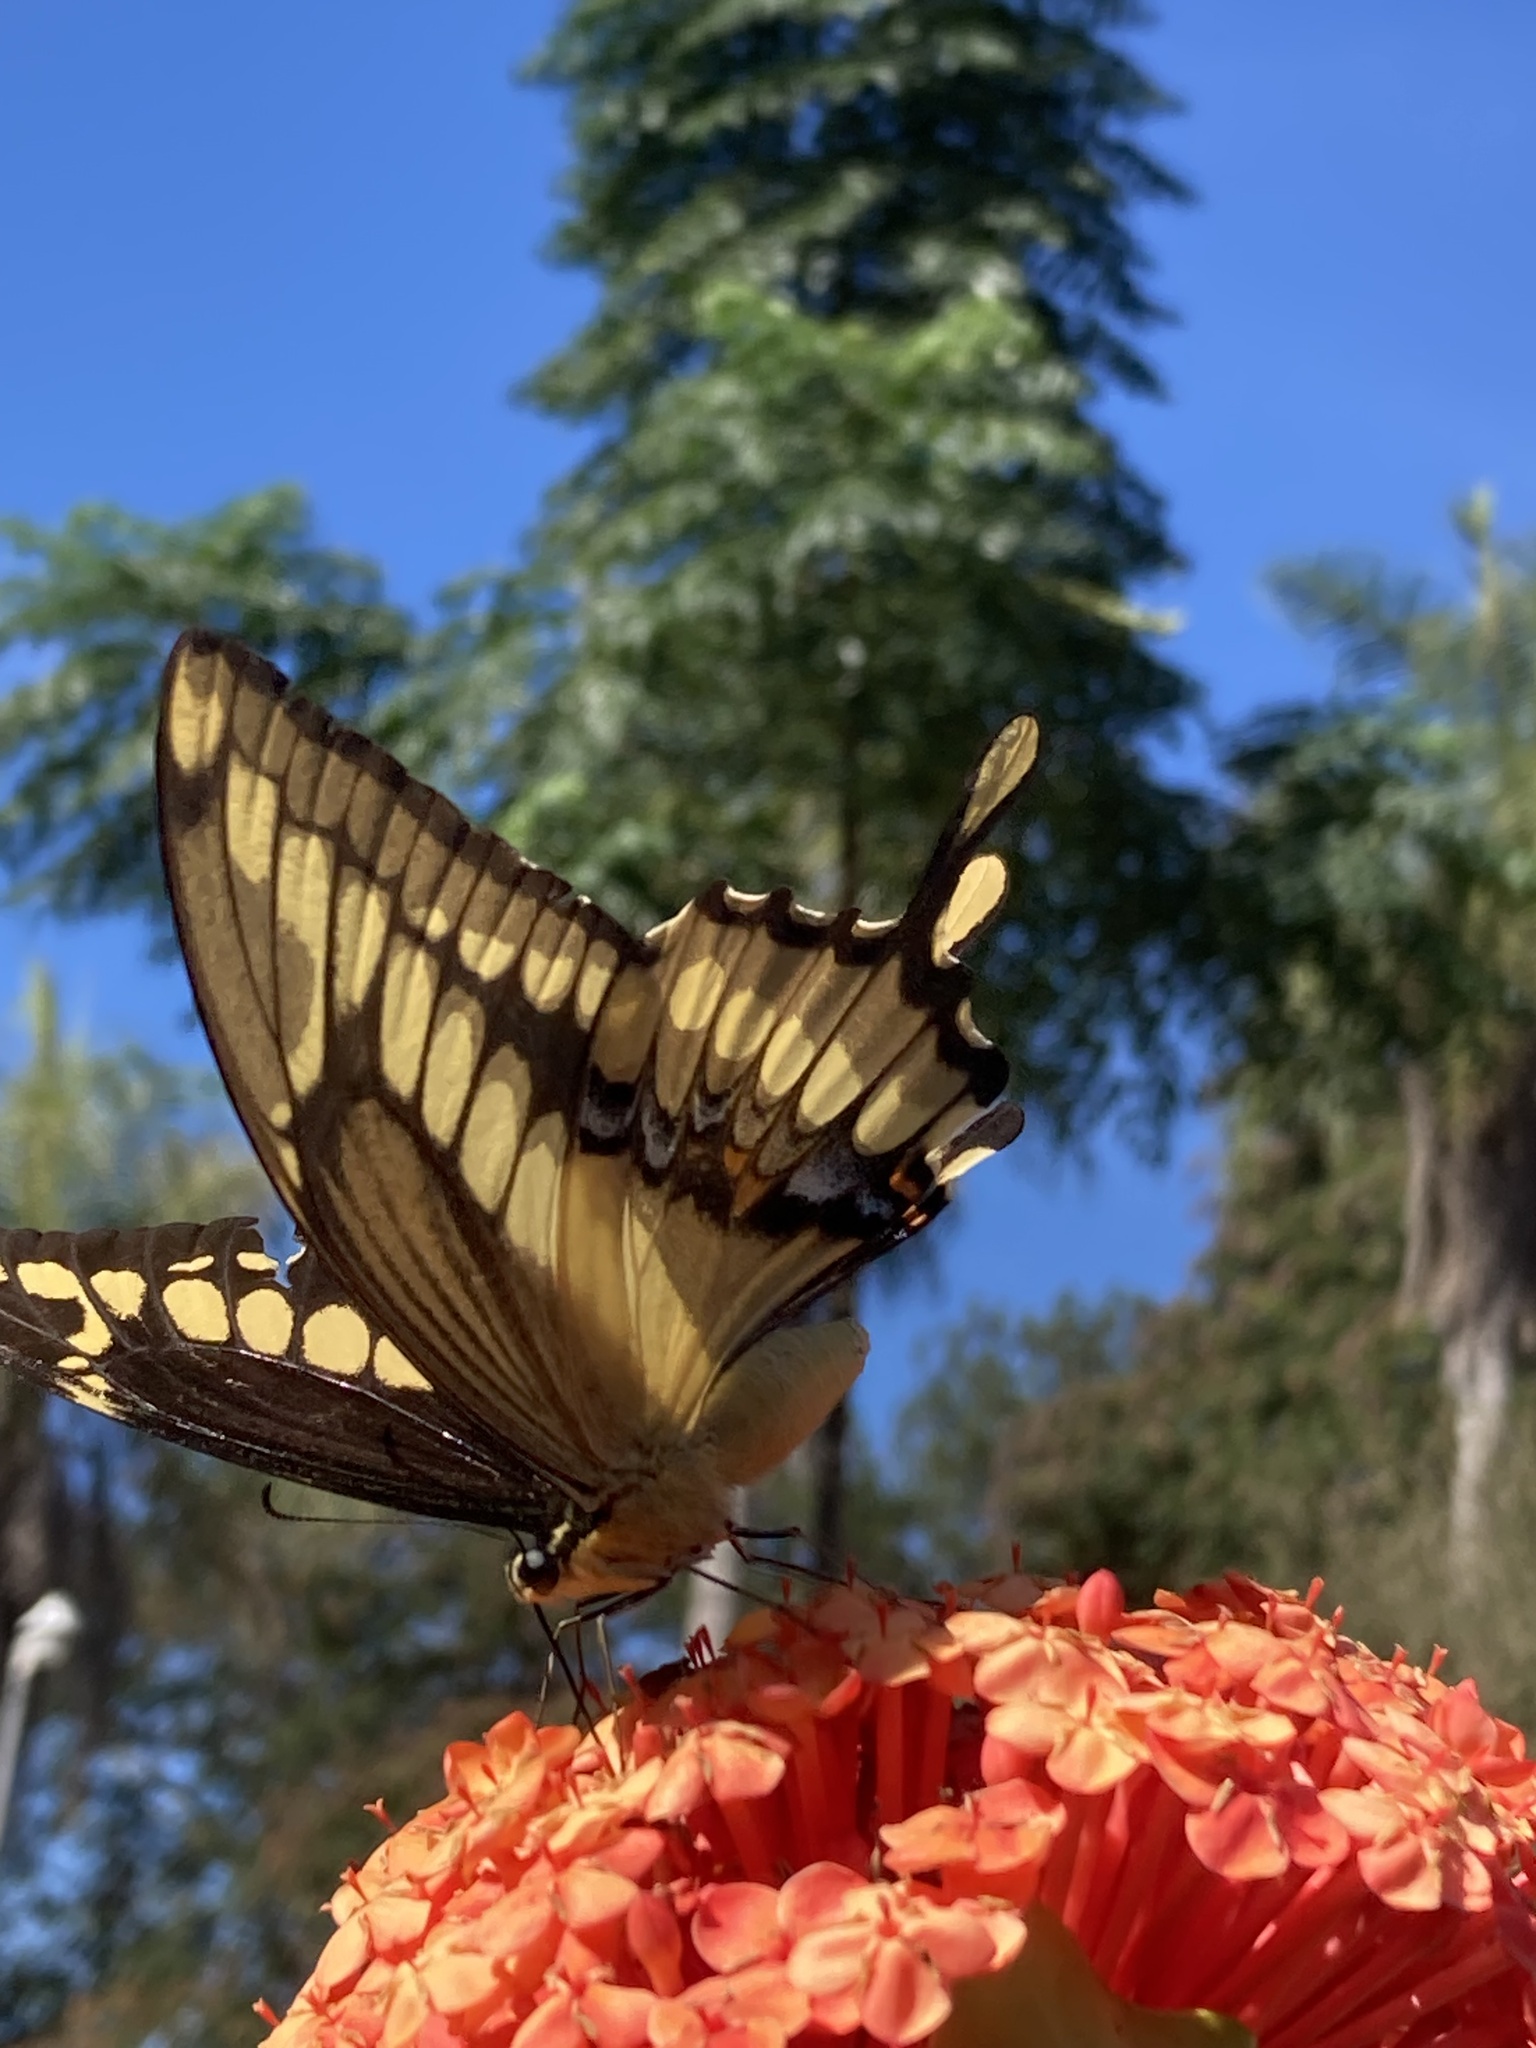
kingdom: Animalia
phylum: Arthropoda
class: Insecta
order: Lepidoptera
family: Papilionidae
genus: Papilio
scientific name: Papilio thoas
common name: King swallowtail
